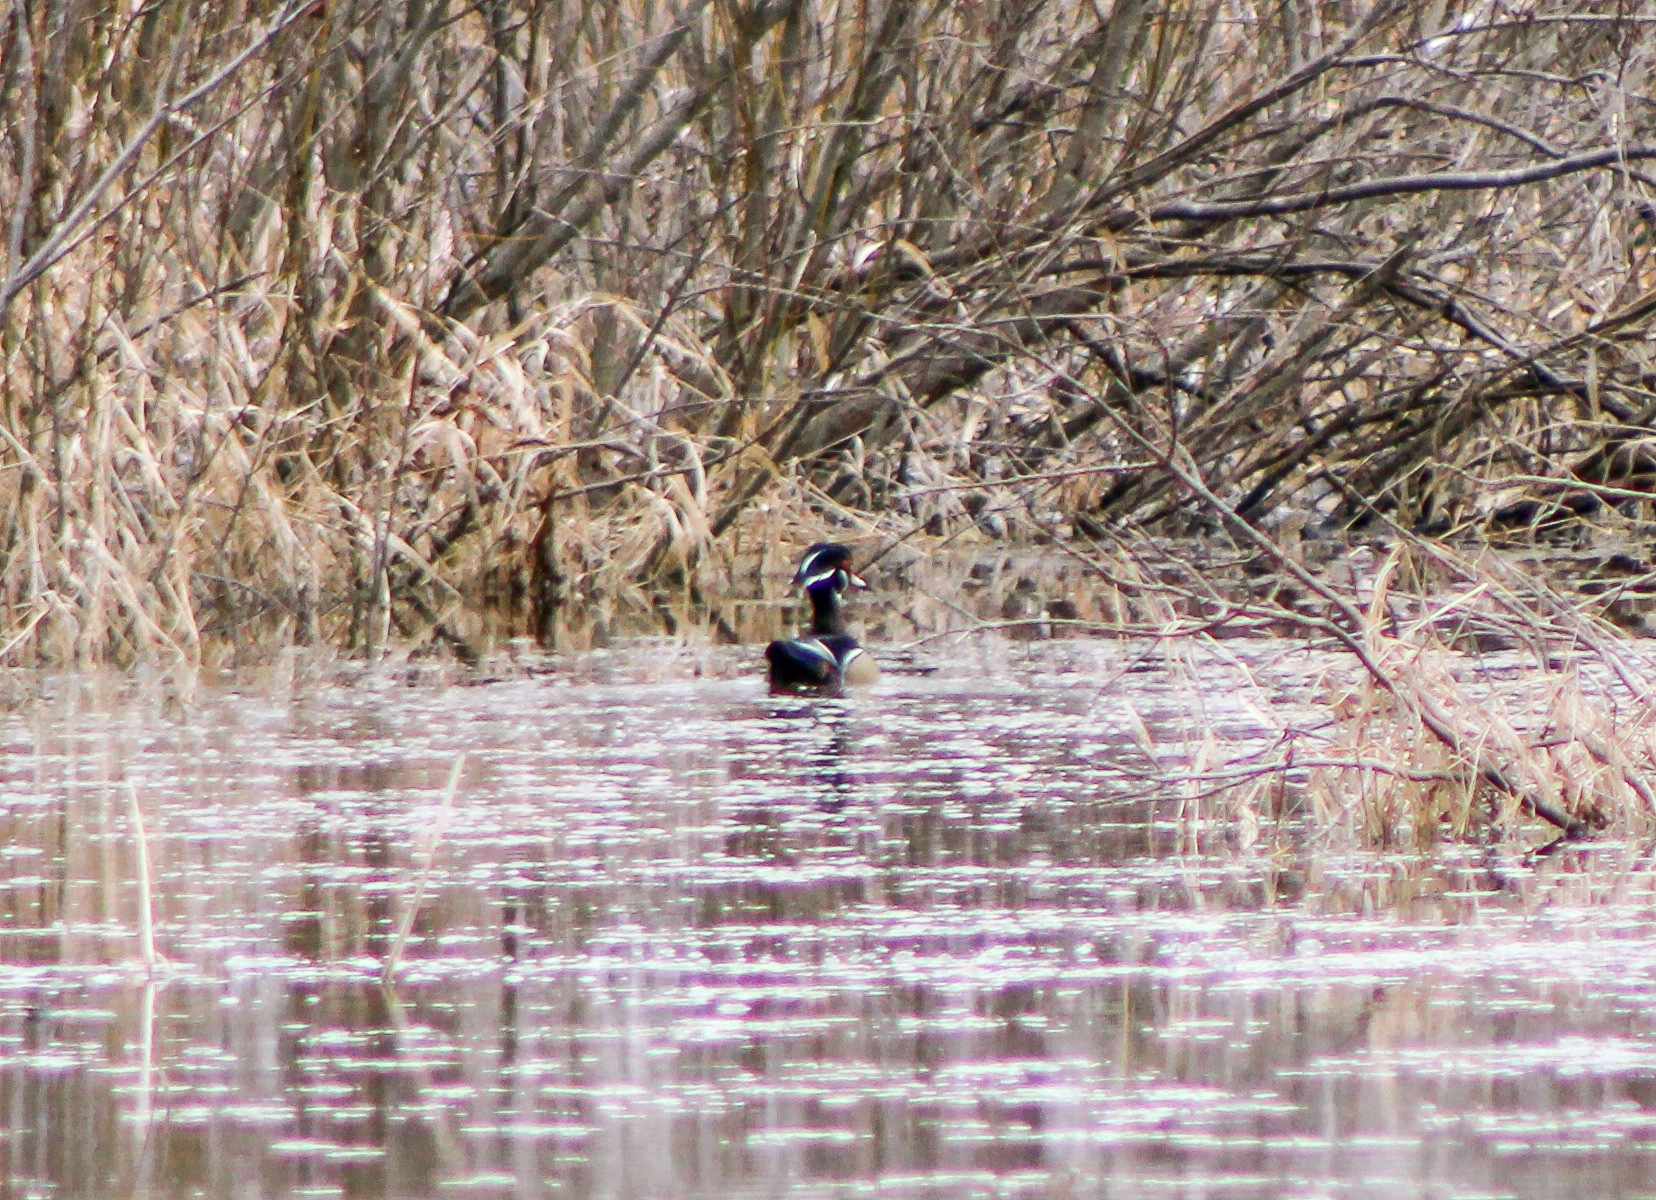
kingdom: Animalia
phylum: Chordata
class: Aves
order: Anseriformes
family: Anatidae
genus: Aix
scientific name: Aix sponsa
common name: Wood duck
